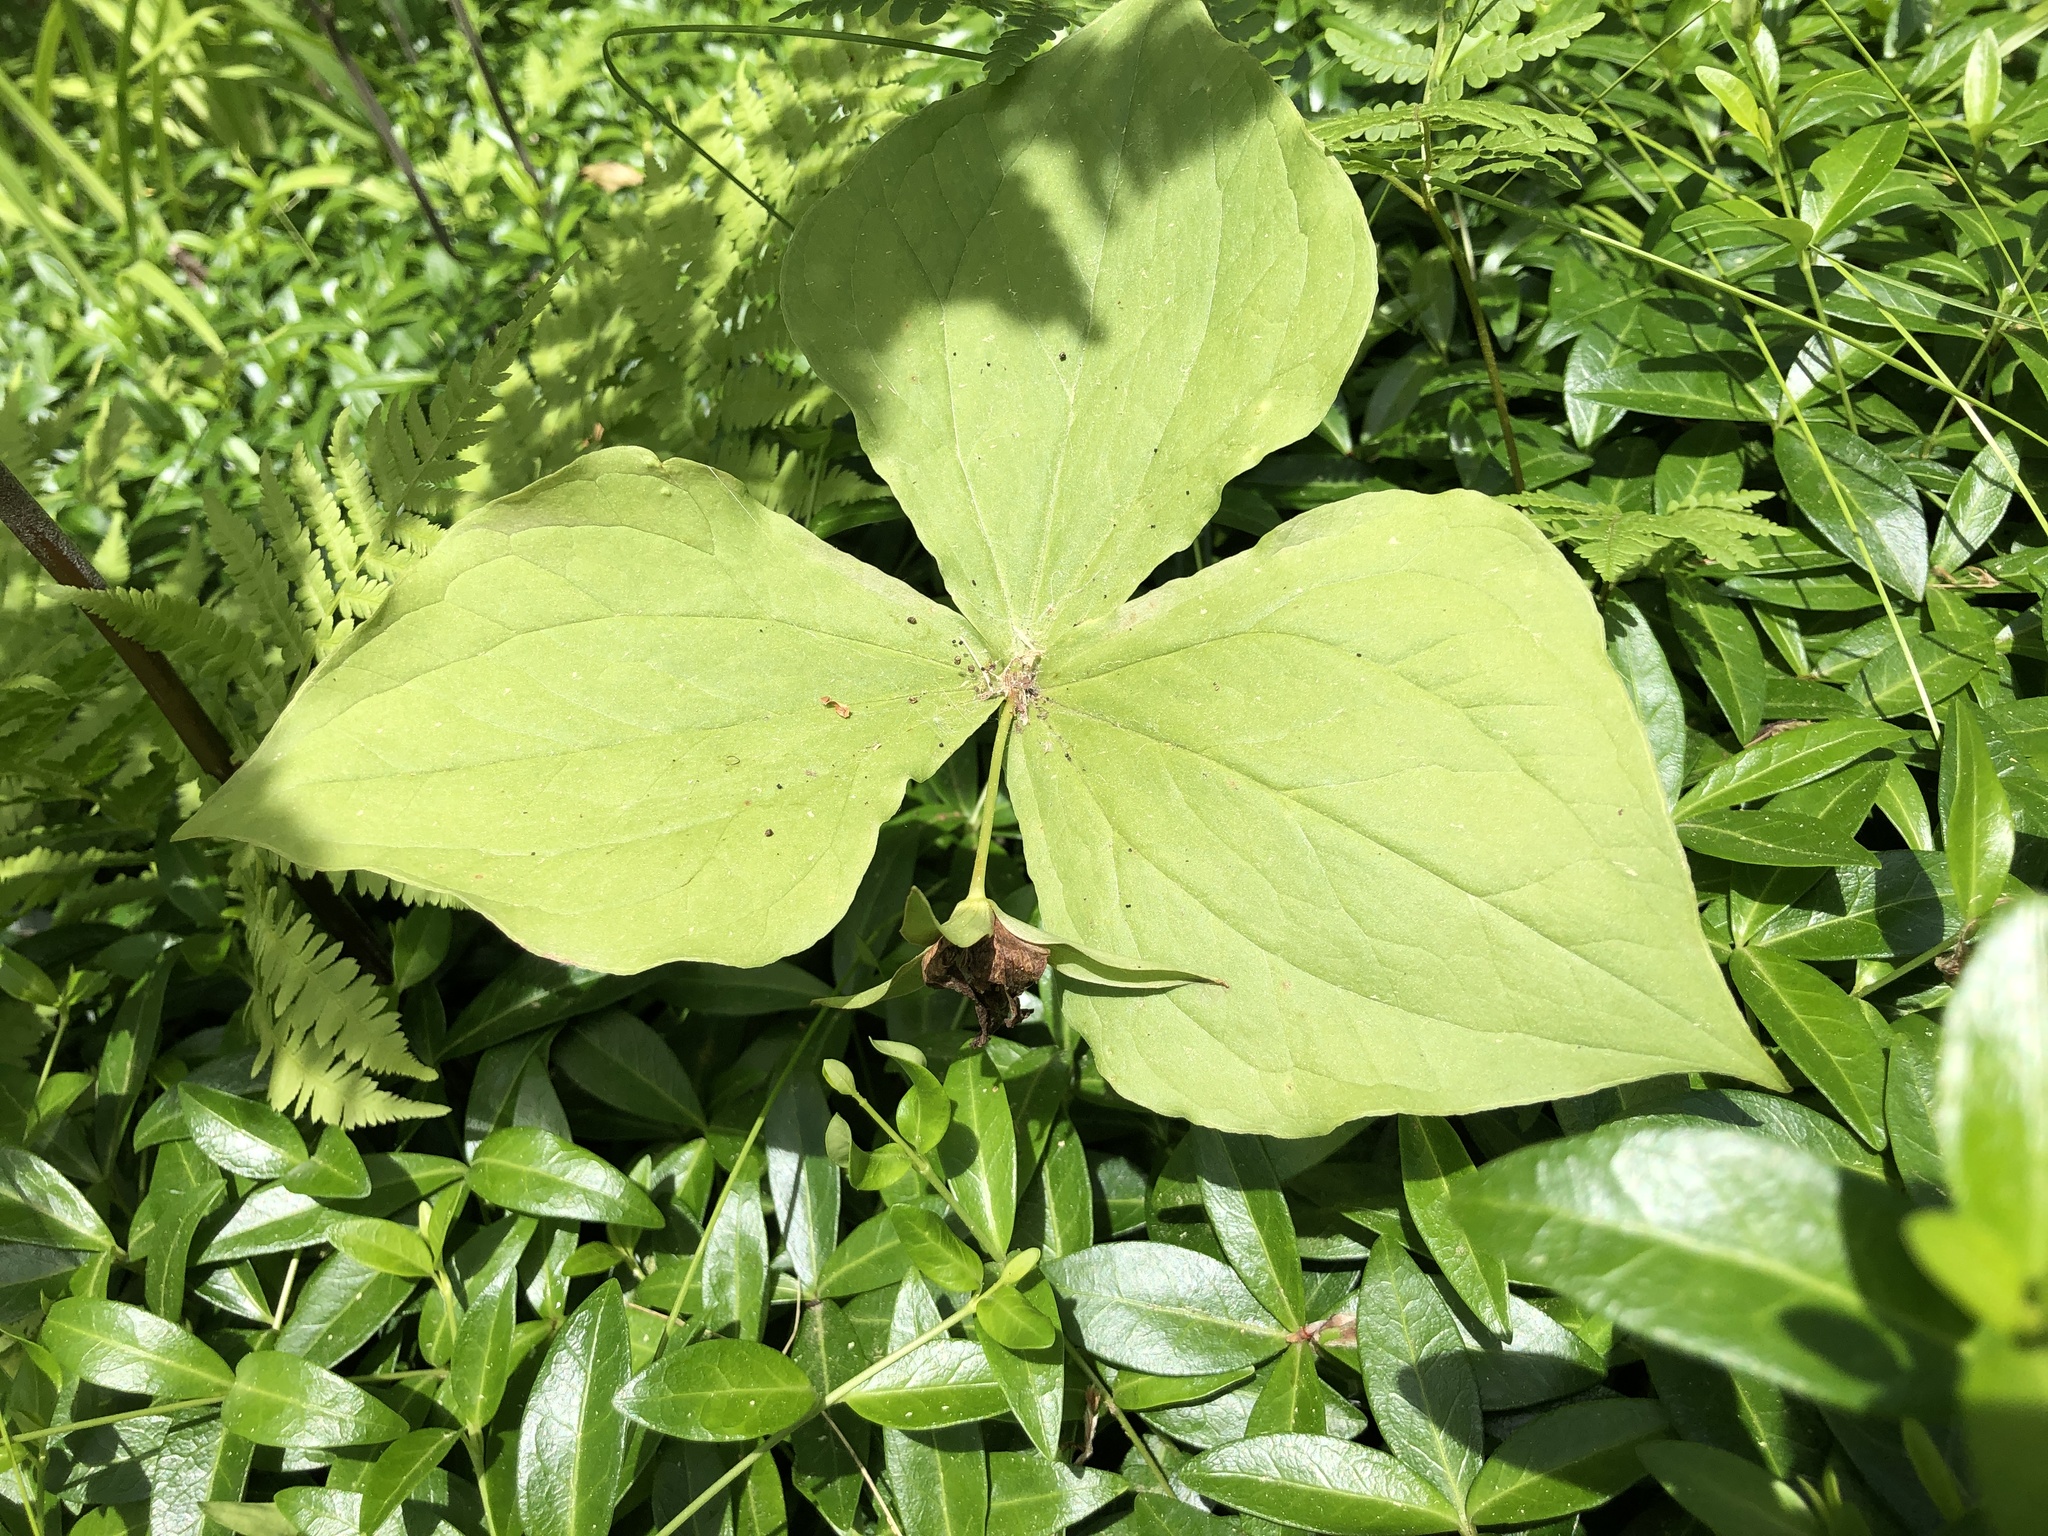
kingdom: Plantae
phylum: Tracheophyta
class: Liliopsida
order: Liliales
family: Melanthiaceae
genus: Trillium
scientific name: Trillium erectum
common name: Purple trillium
